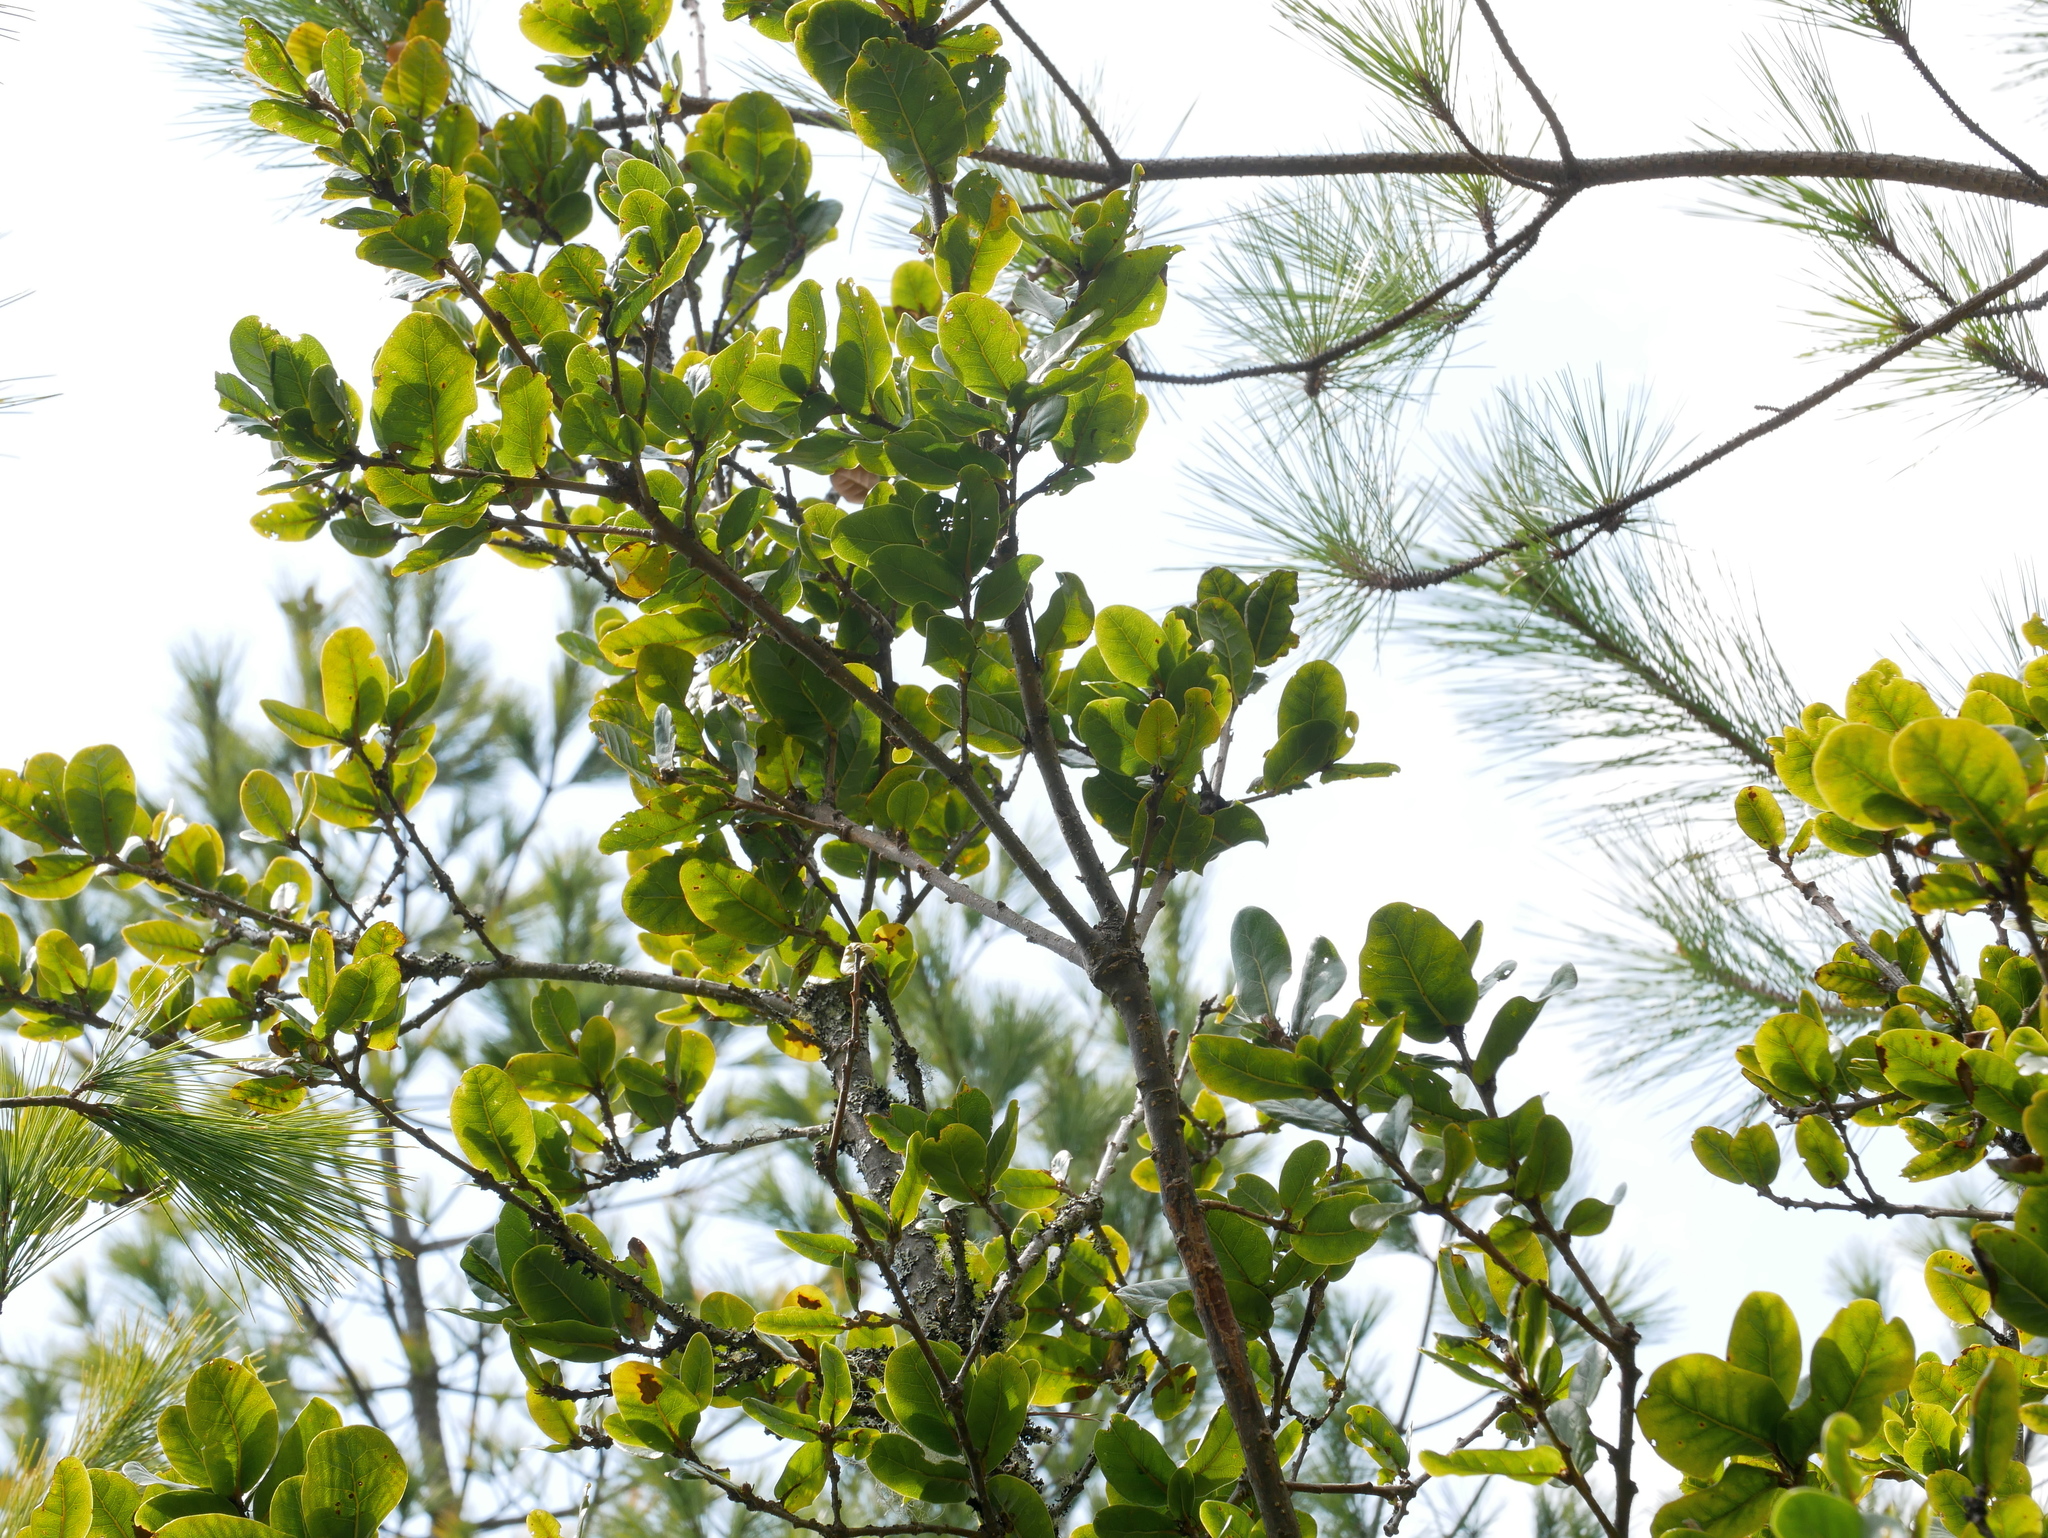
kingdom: Plantae
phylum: Tracheophyta
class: Magnoliopsida
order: Fagales
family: Fagaceae
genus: Quercus
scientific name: Quercus spinosa
